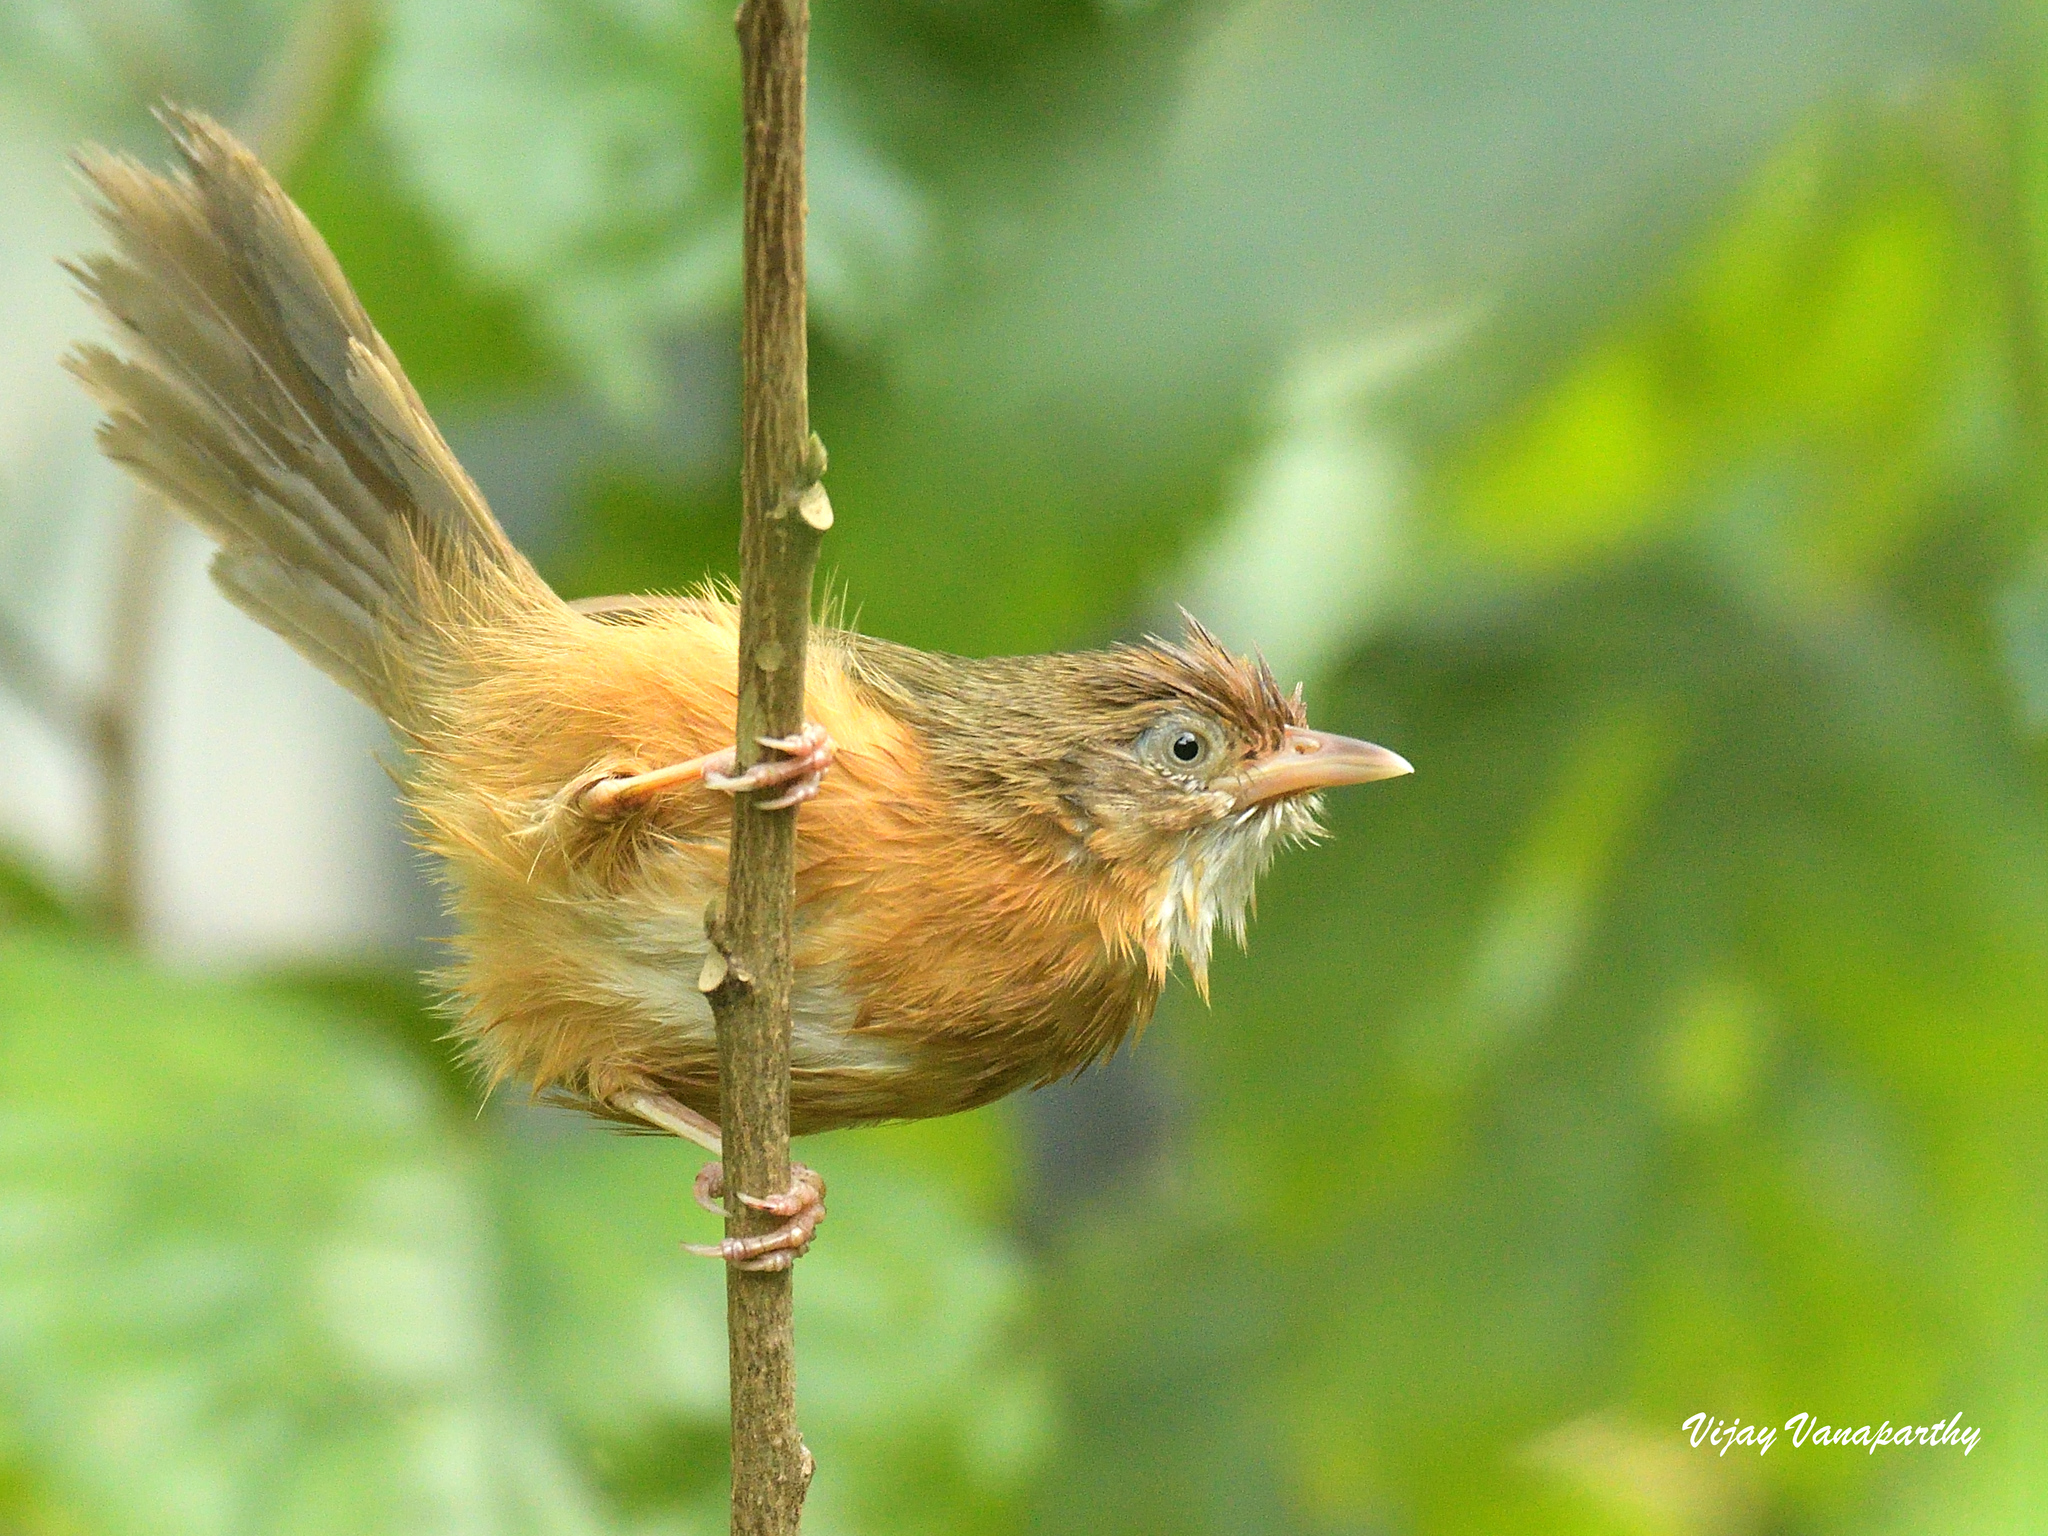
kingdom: Animalia
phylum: Chordata
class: Aves
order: Passeriformes
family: Timaliidae
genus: Dumetia
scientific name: Dumetia hyperythra
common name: Tawny-bellied babbler
